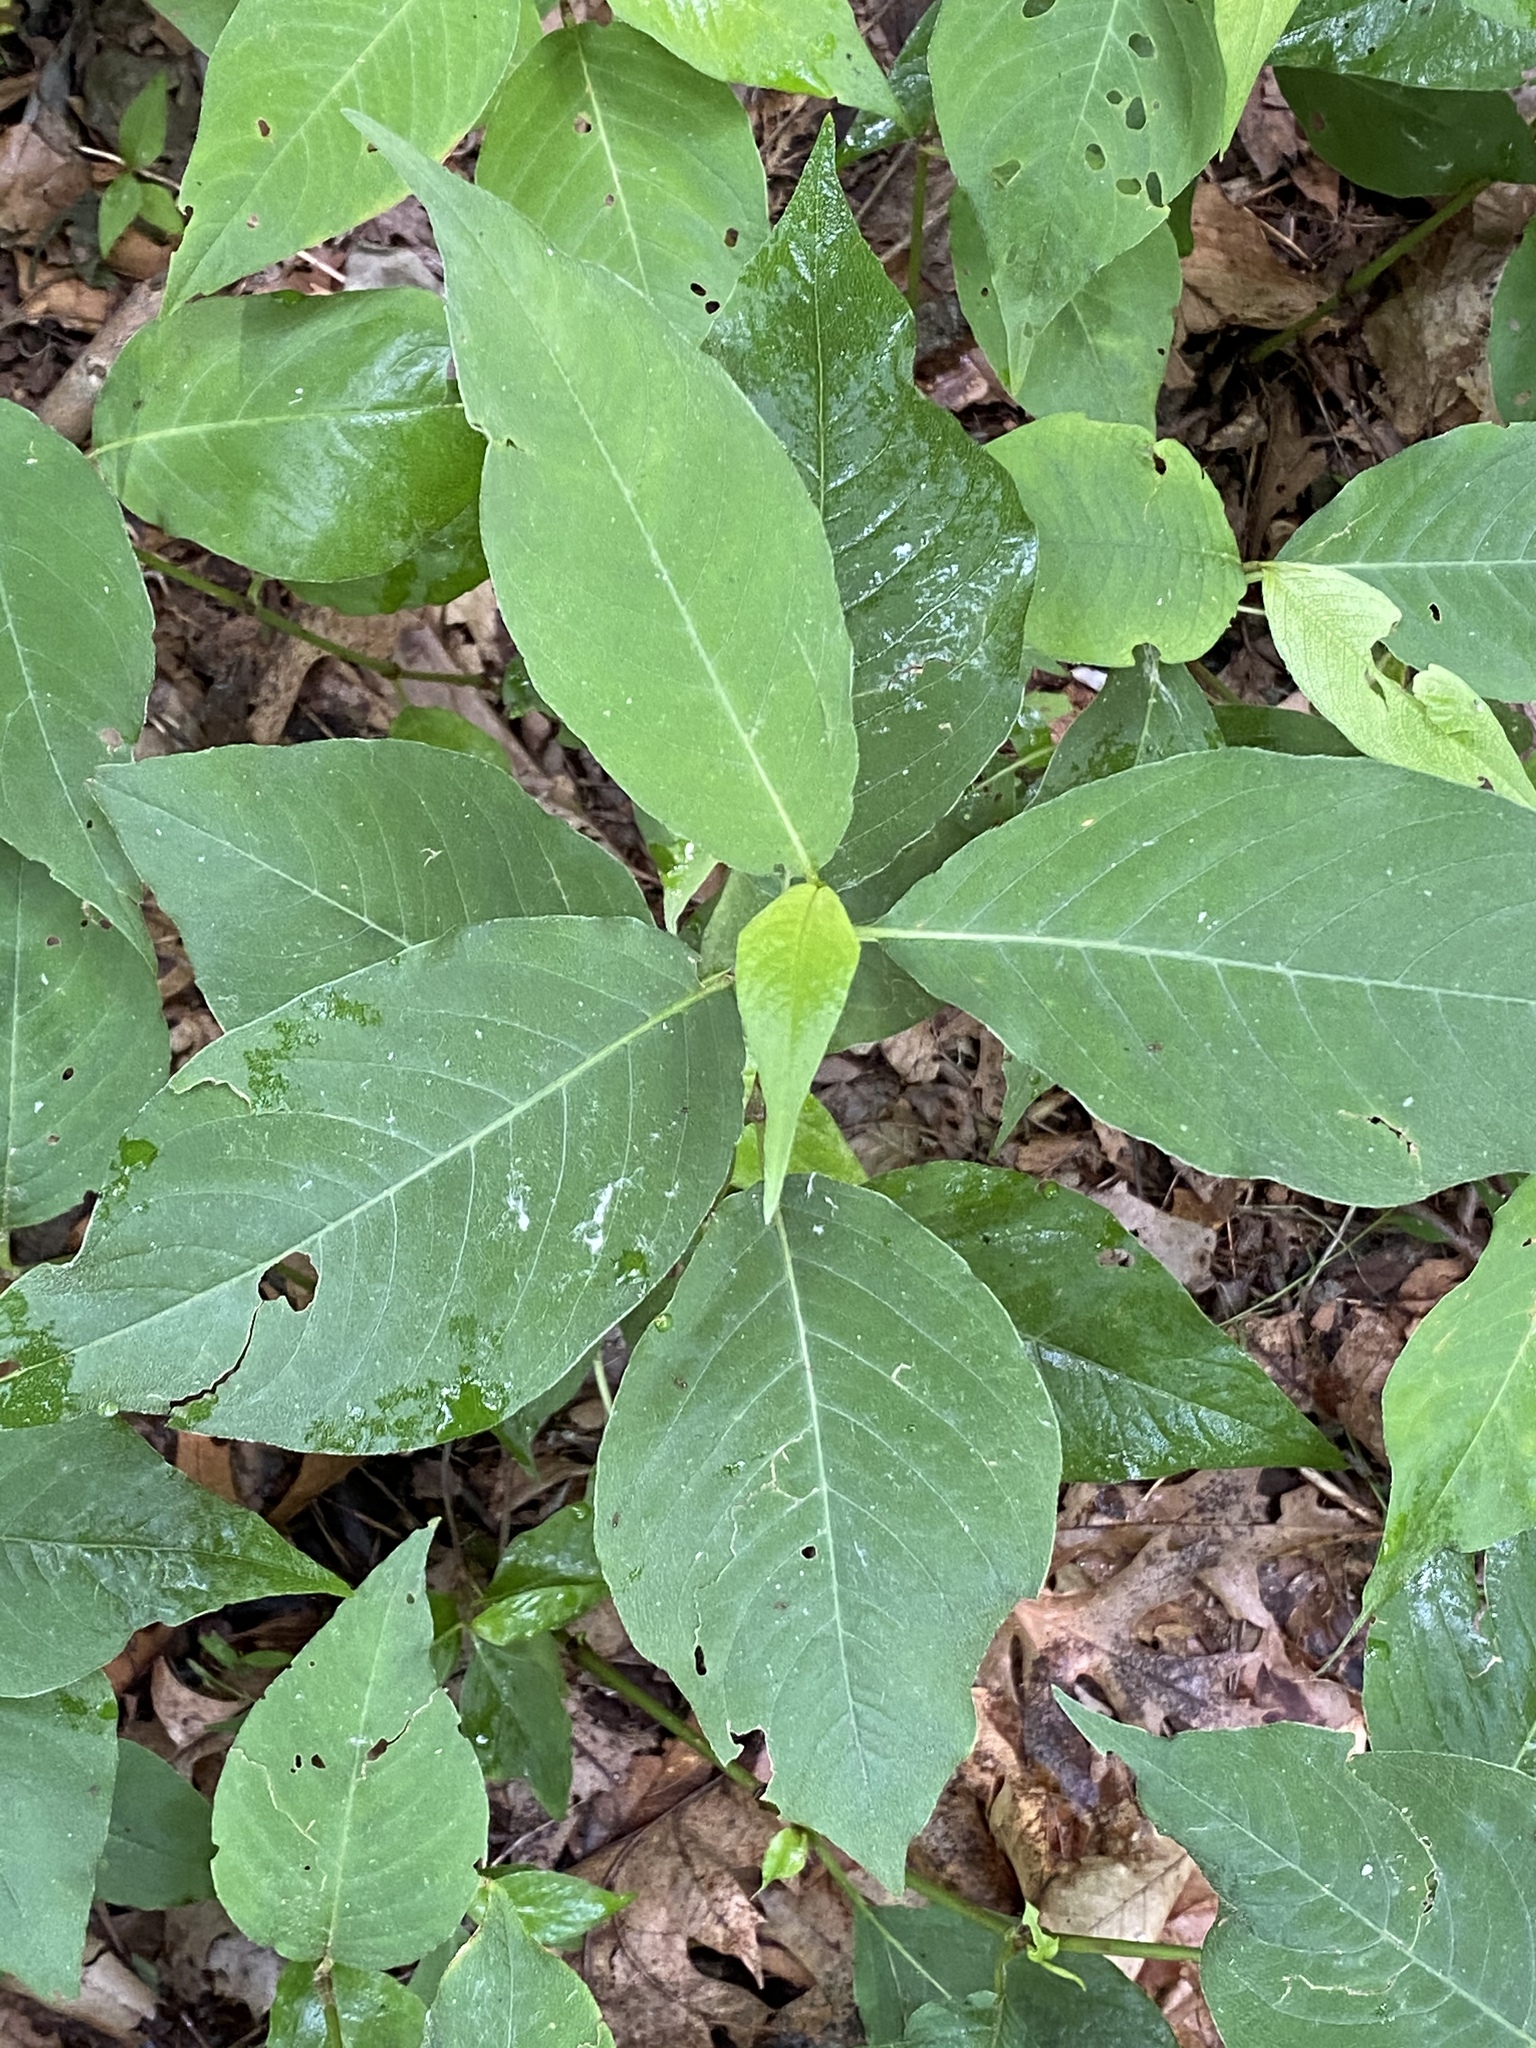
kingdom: Plantae
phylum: Tracheophyta
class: Magnoliopsida
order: Caryophyllales
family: Polygonaceae
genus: Persicaria
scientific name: Persicaria virginiana
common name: Jumpseed
